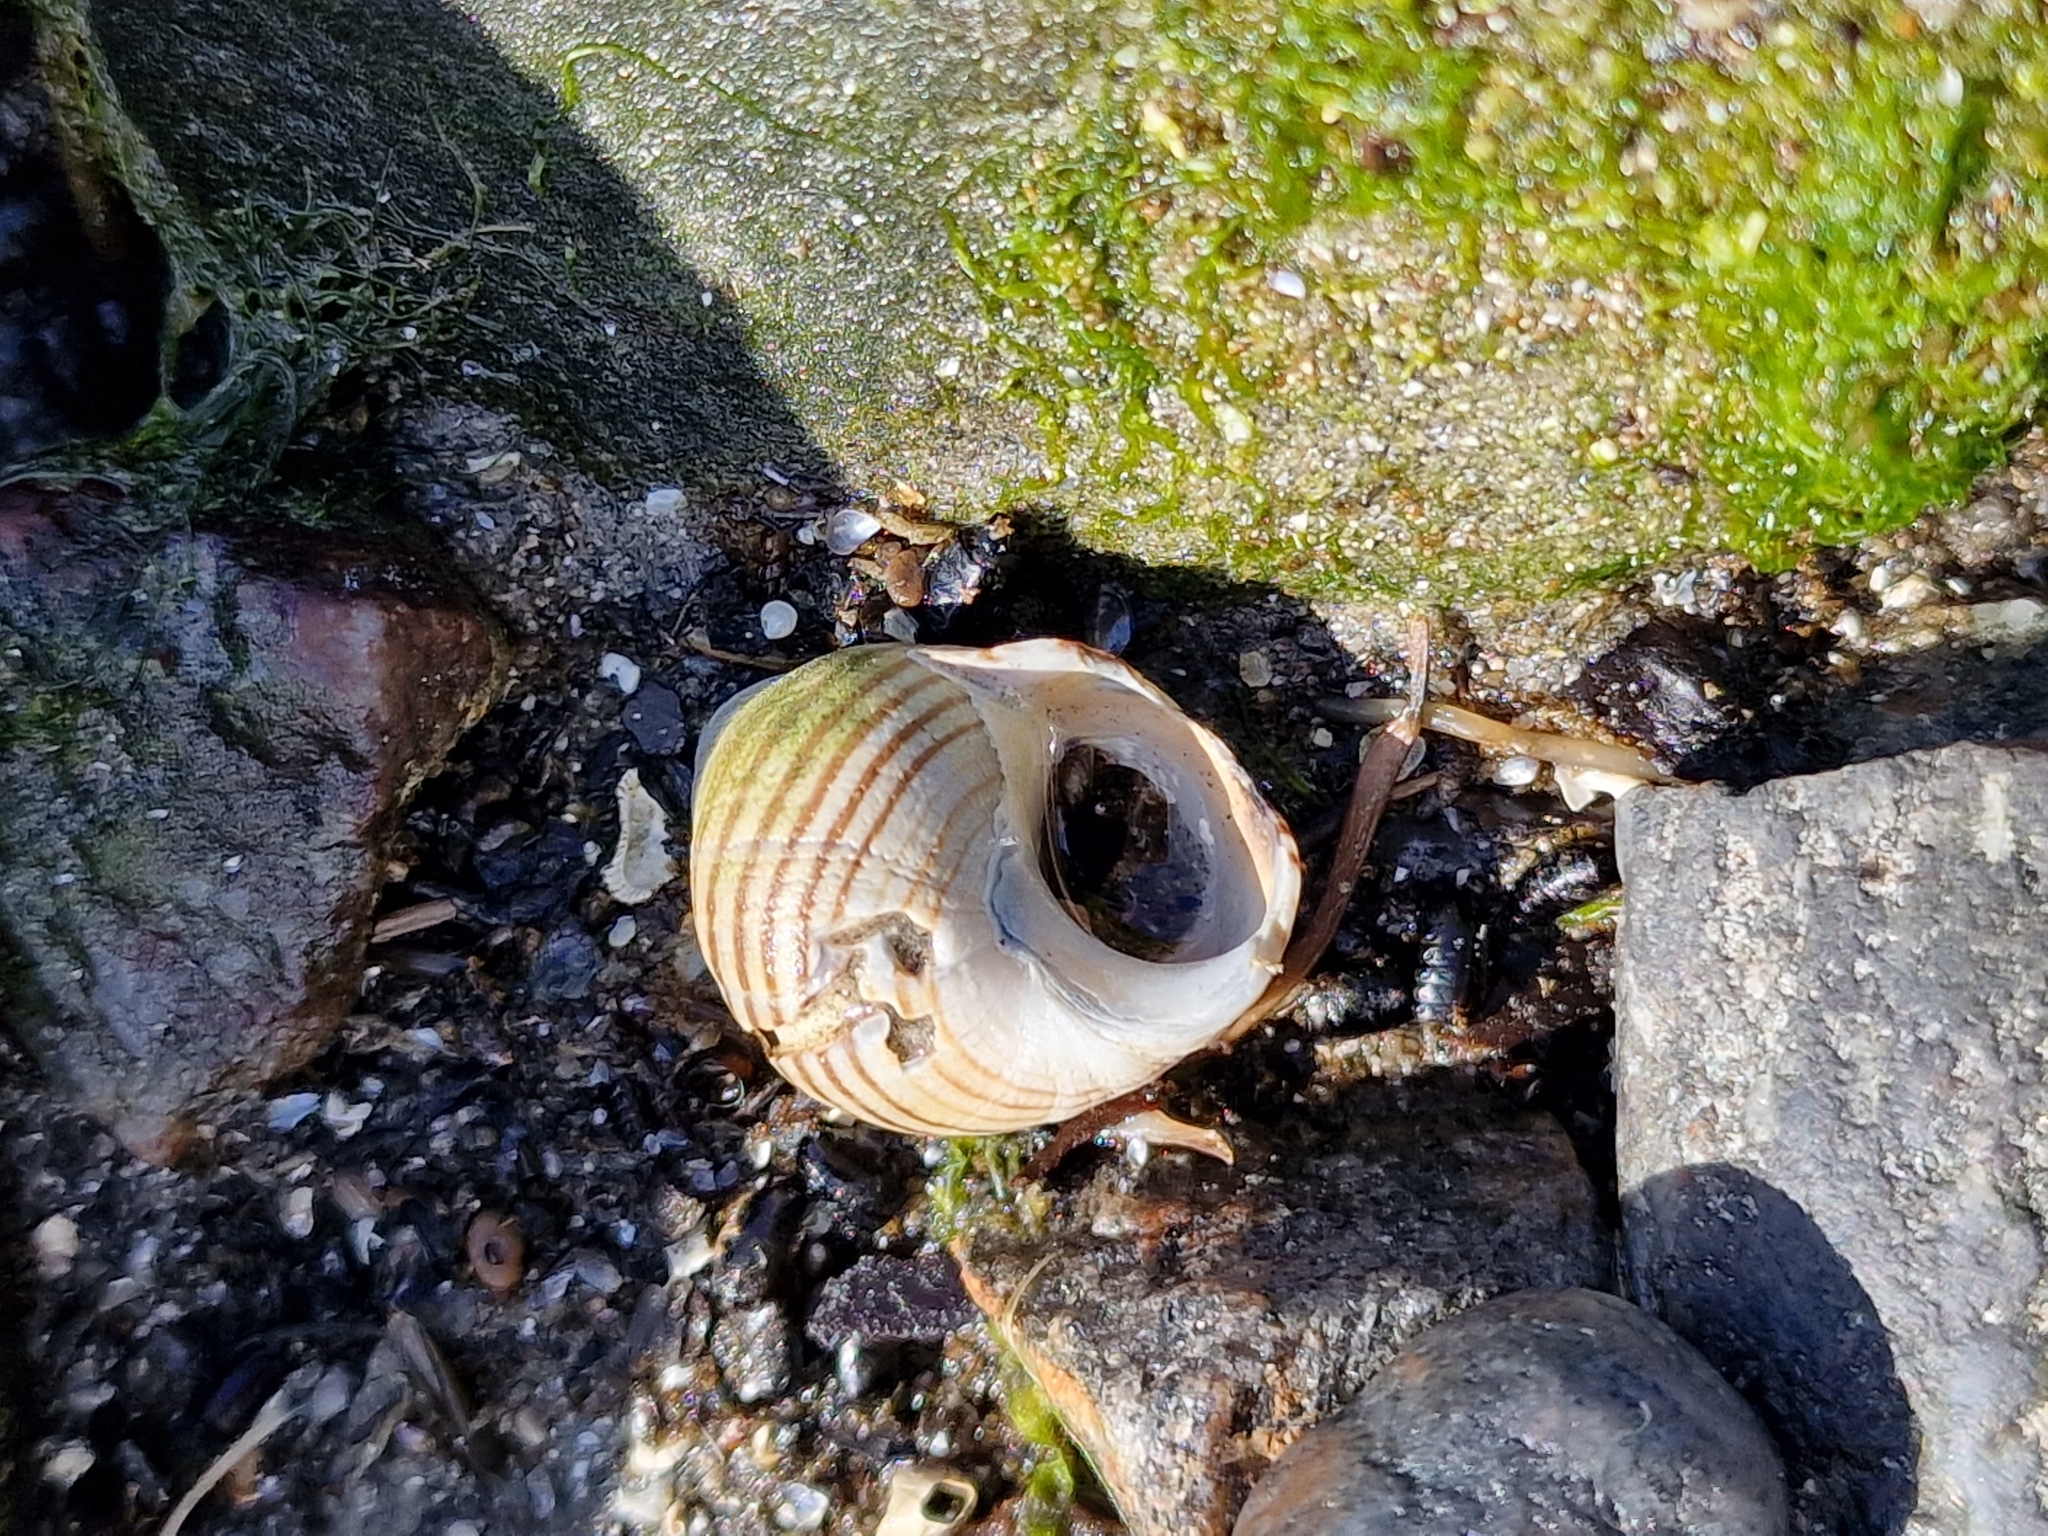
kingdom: Animalia
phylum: Mollusca
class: Gastropoda
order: Littorinimorpha
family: Littorinidae
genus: Littorina
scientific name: Littorina littorea
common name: Common periwinkle
